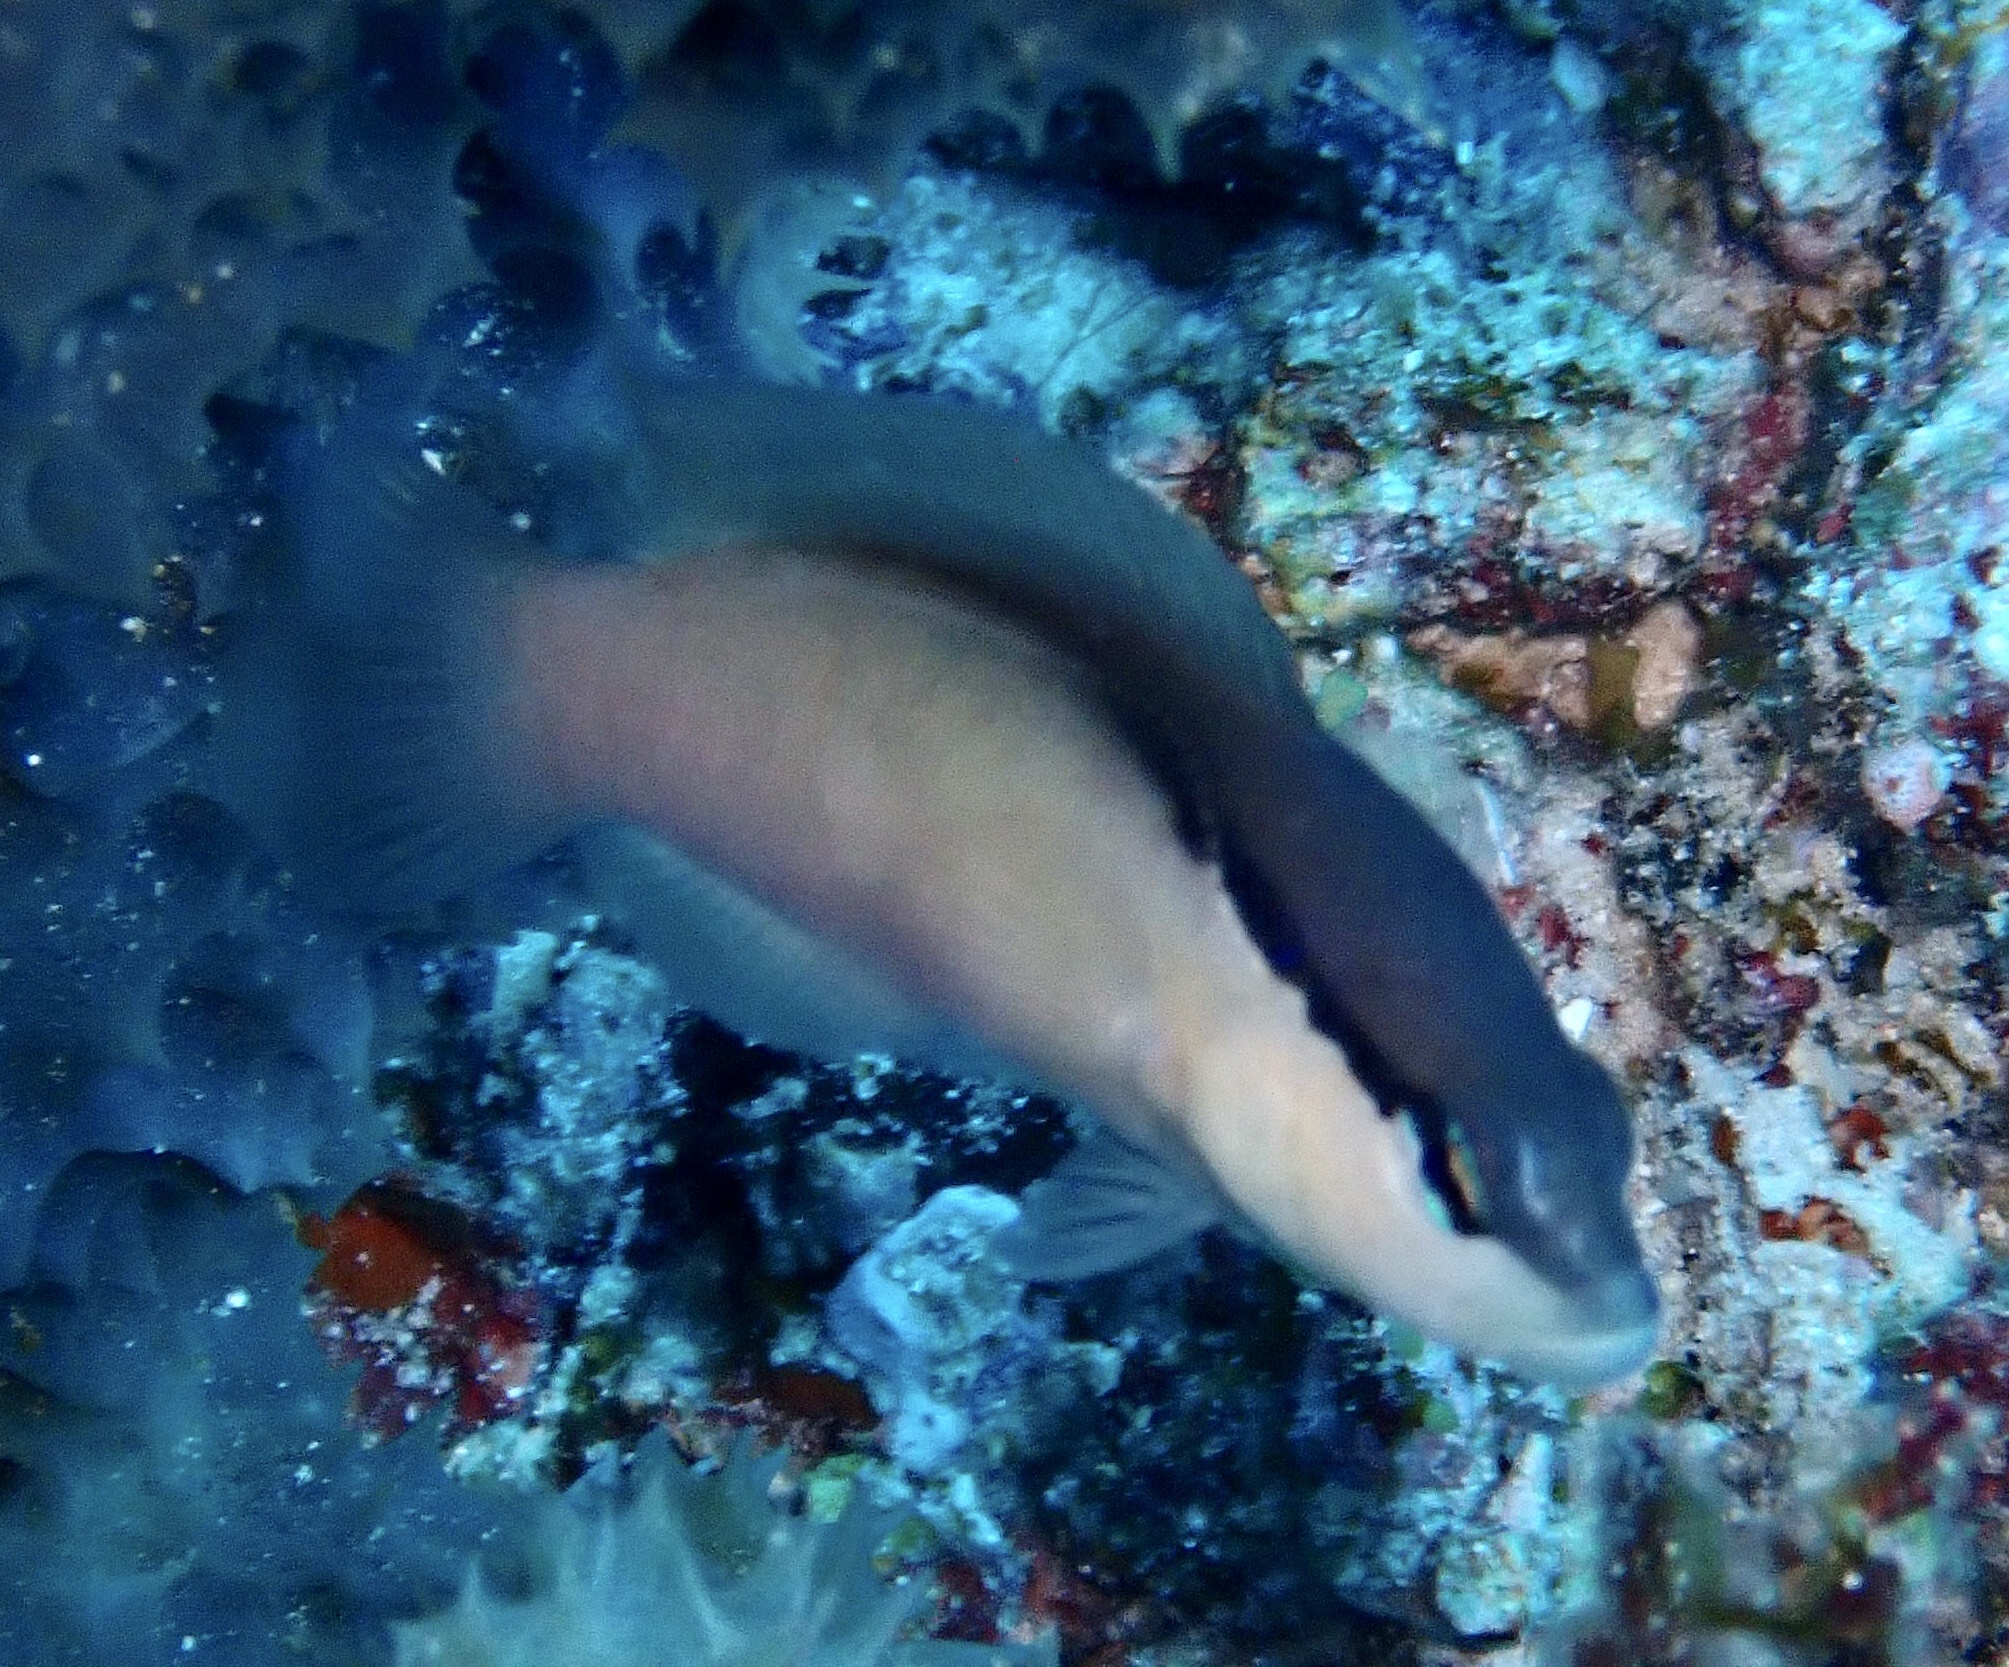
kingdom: Animalia
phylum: Chordata
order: Perciformes
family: Pseudochromidae
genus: Pseudochromis
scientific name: Pseudochromis perspicillatus
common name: Southeast asian blackstripe dottyback
